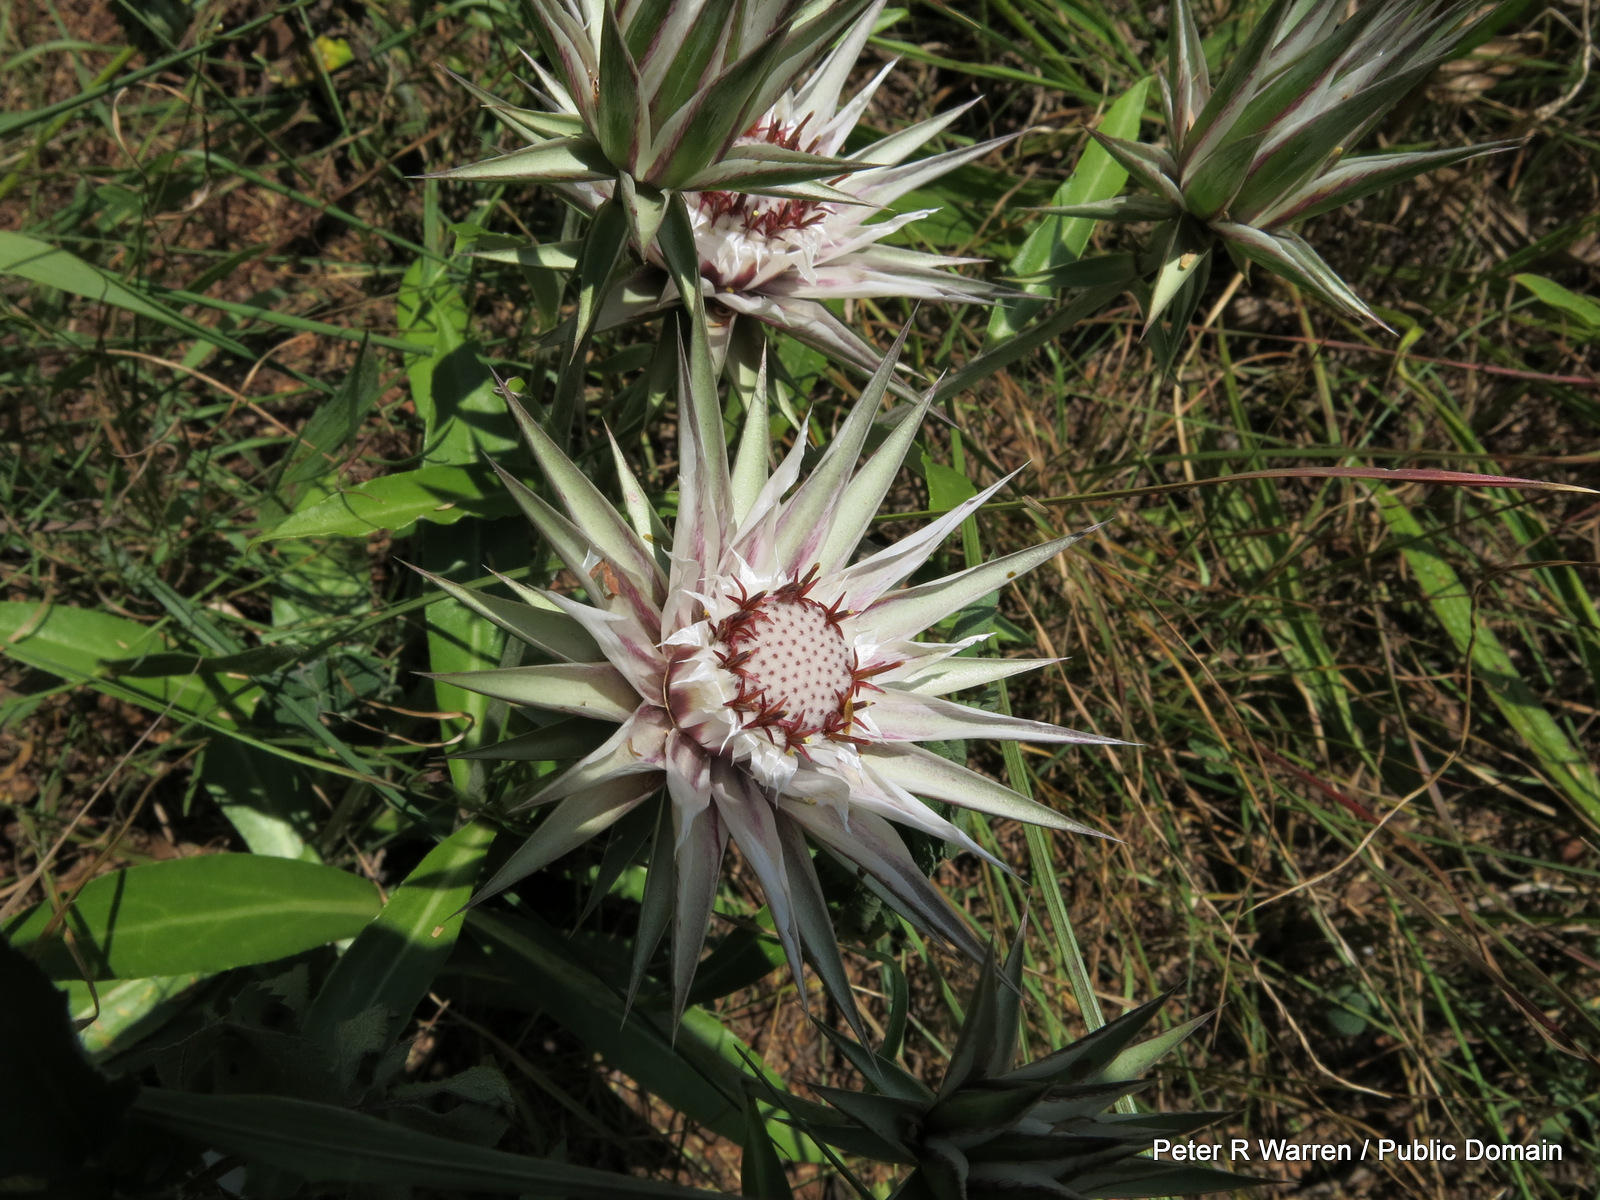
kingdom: Plantae
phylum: Tracheophyta
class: Magnoliopsida
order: Asterales
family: Asteraceae
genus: Macledium
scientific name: Macledium zeyheri
